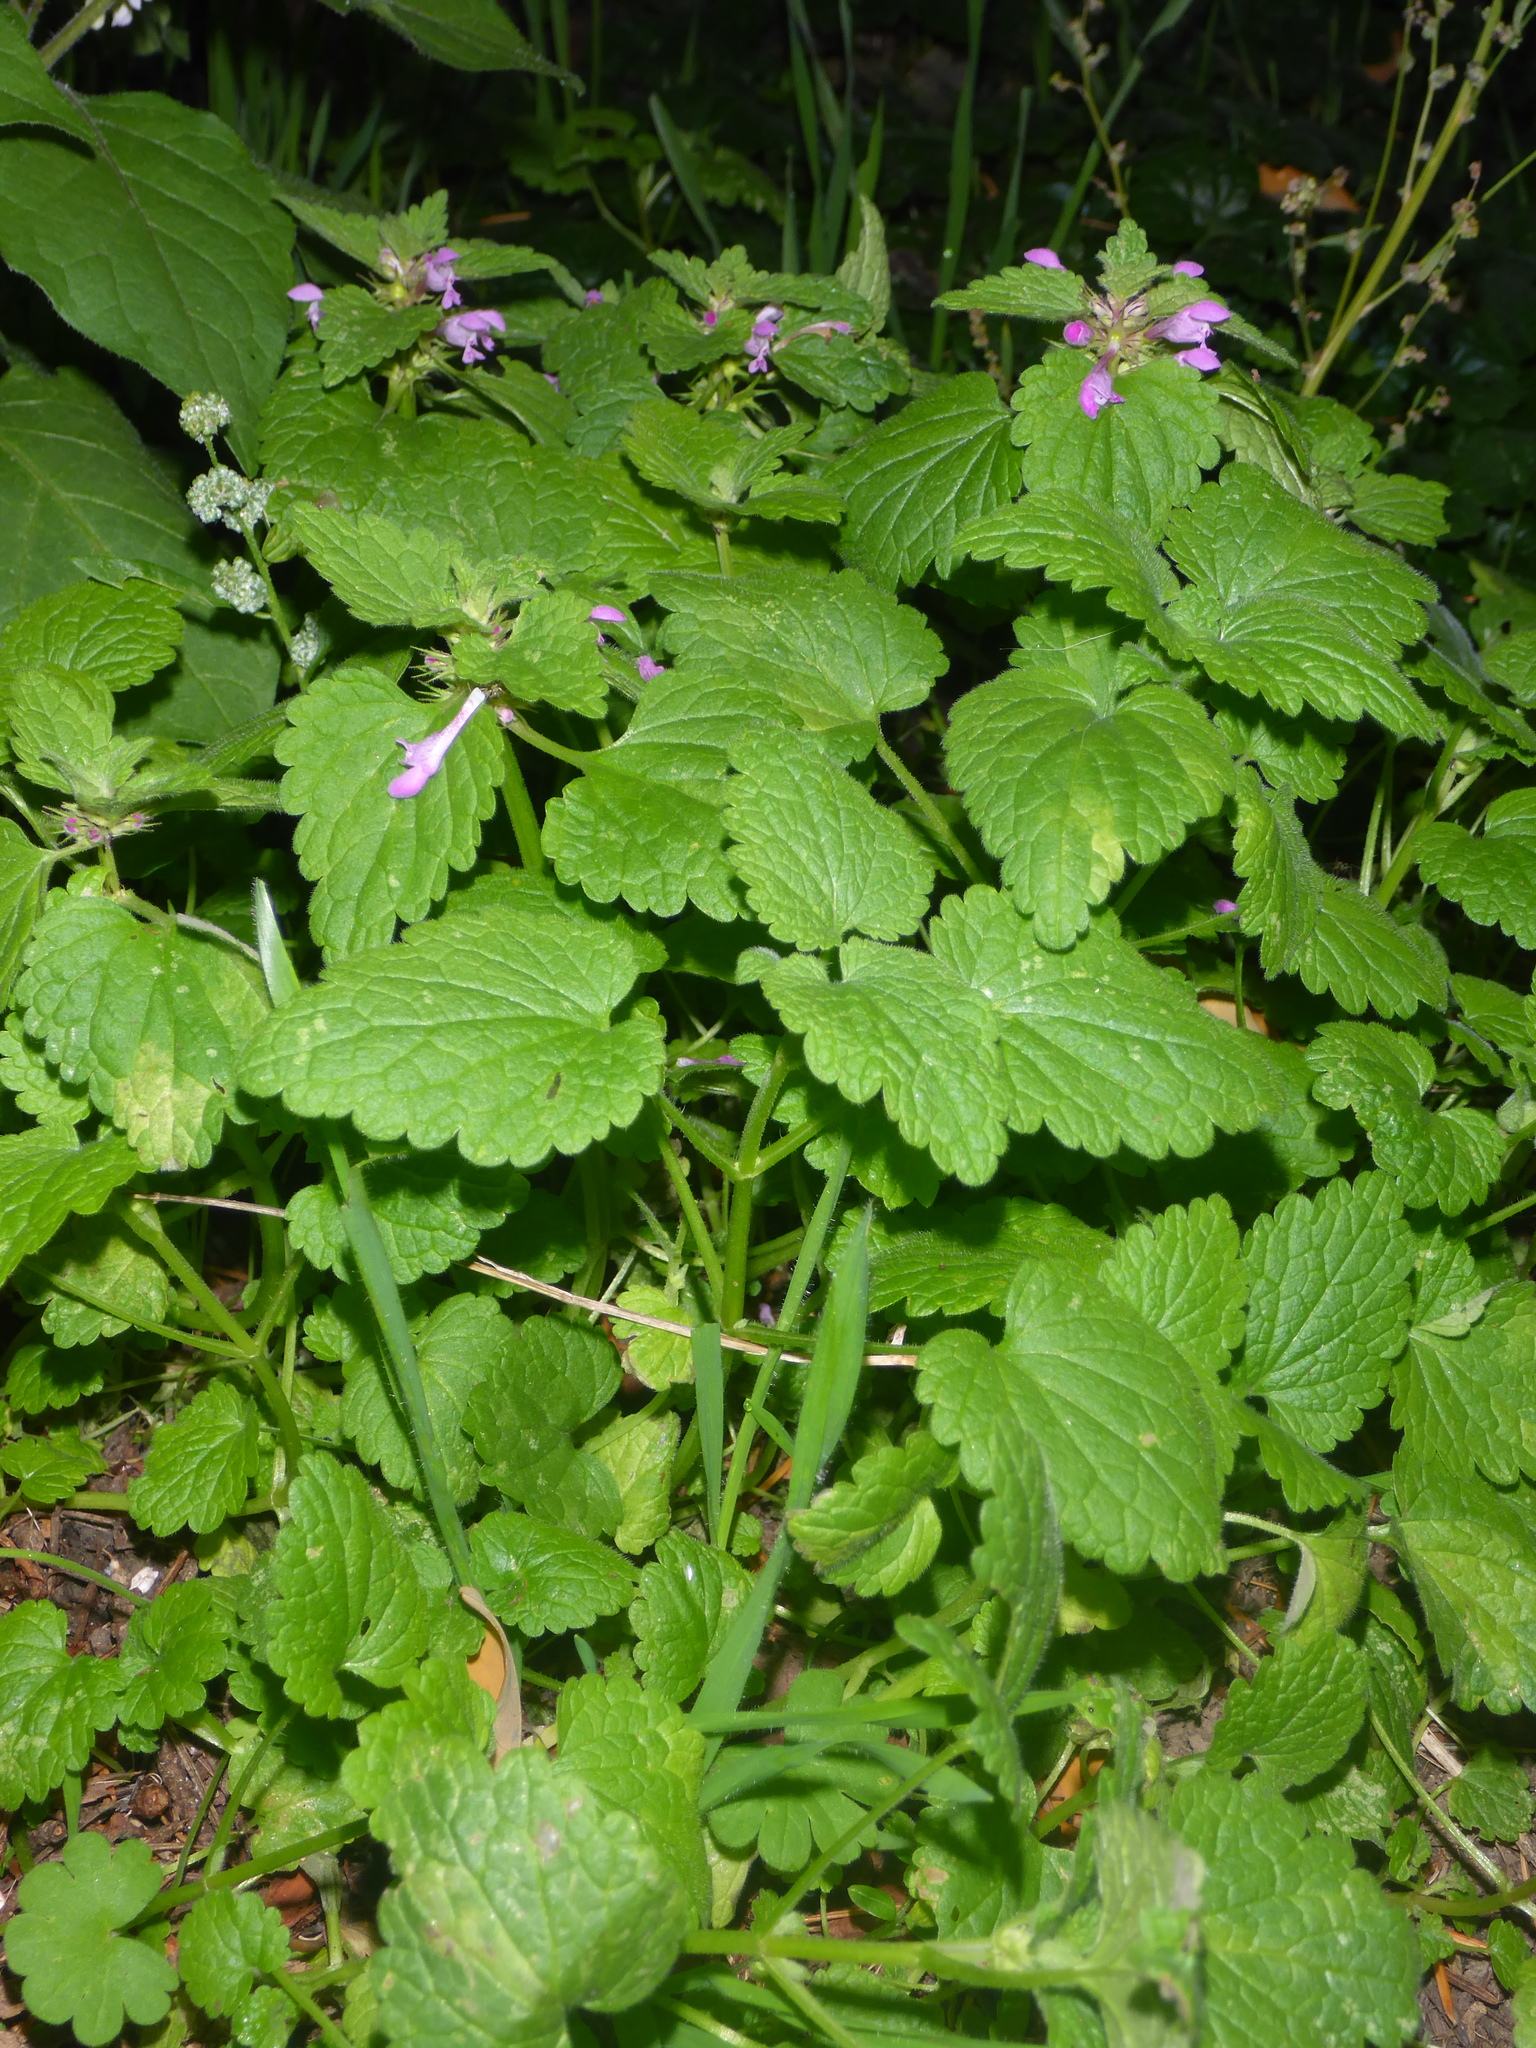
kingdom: Plantae
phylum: Tracheophyta
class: Magnoliopsida
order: Lamiales
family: Lamiaceae
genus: Lamium
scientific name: Lamium purpureum
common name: Red dead-nettle
